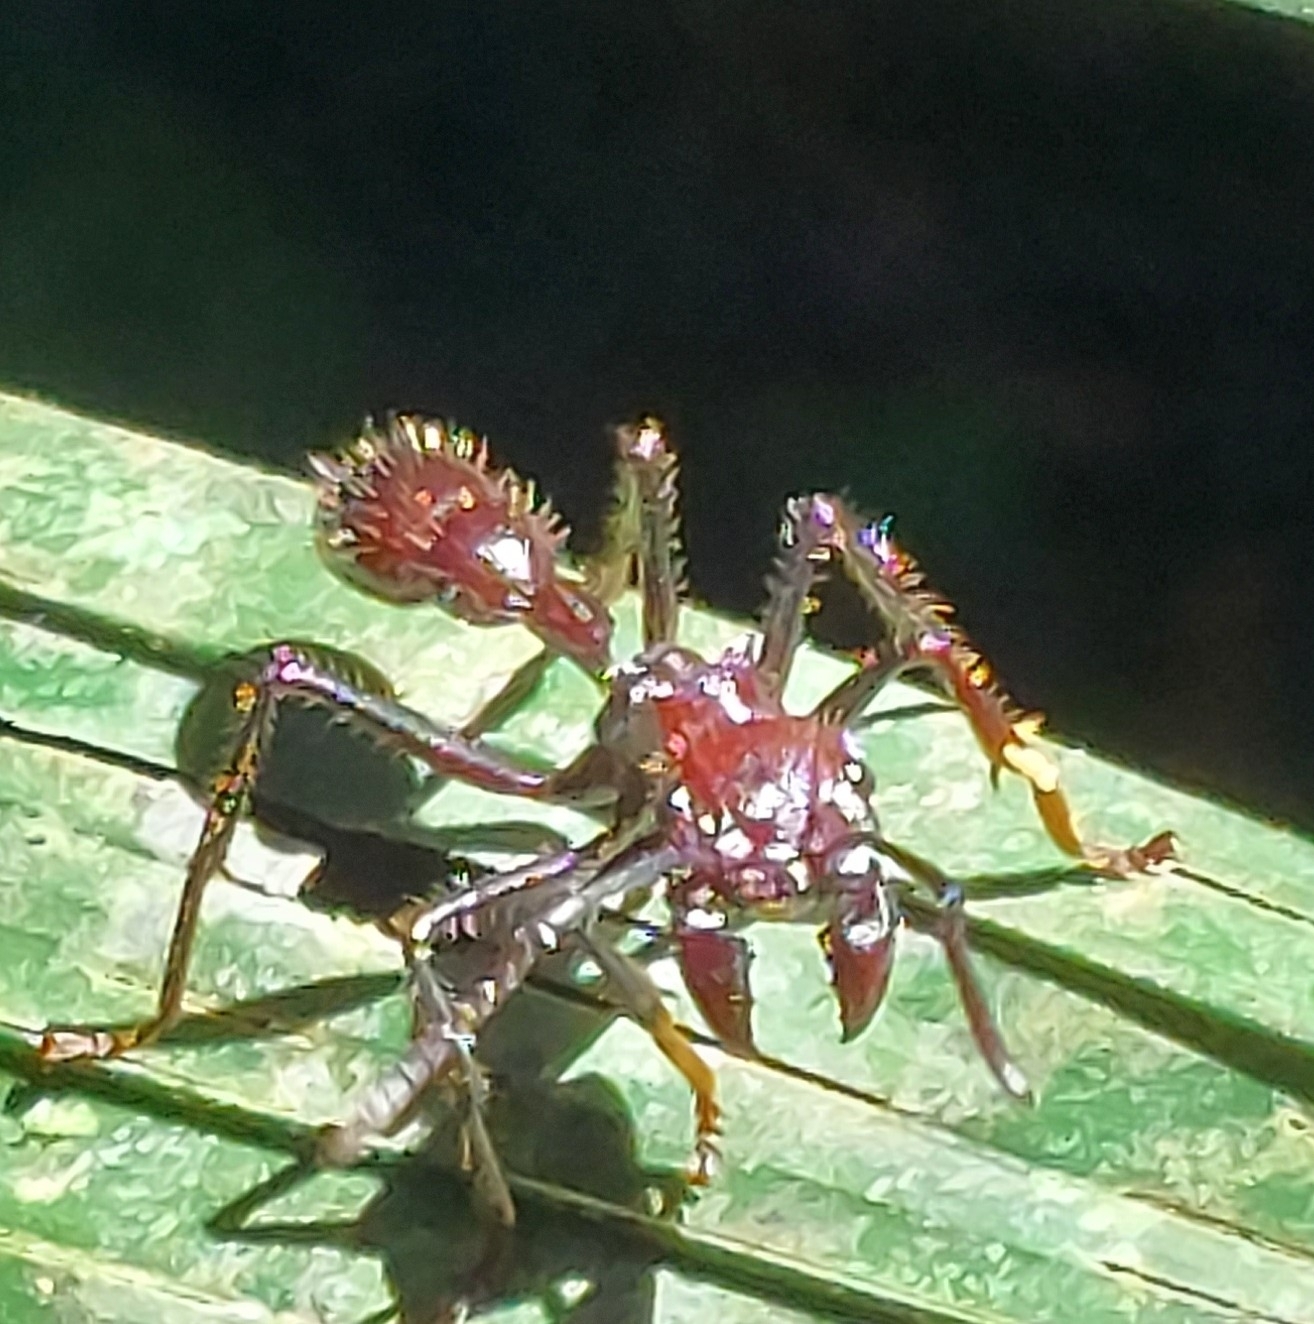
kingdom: Animalia
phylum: Arthropoda
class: Insecta
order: Hymenoptera
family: Formicidae
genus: Paraponera
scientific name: Paraponera clavata
